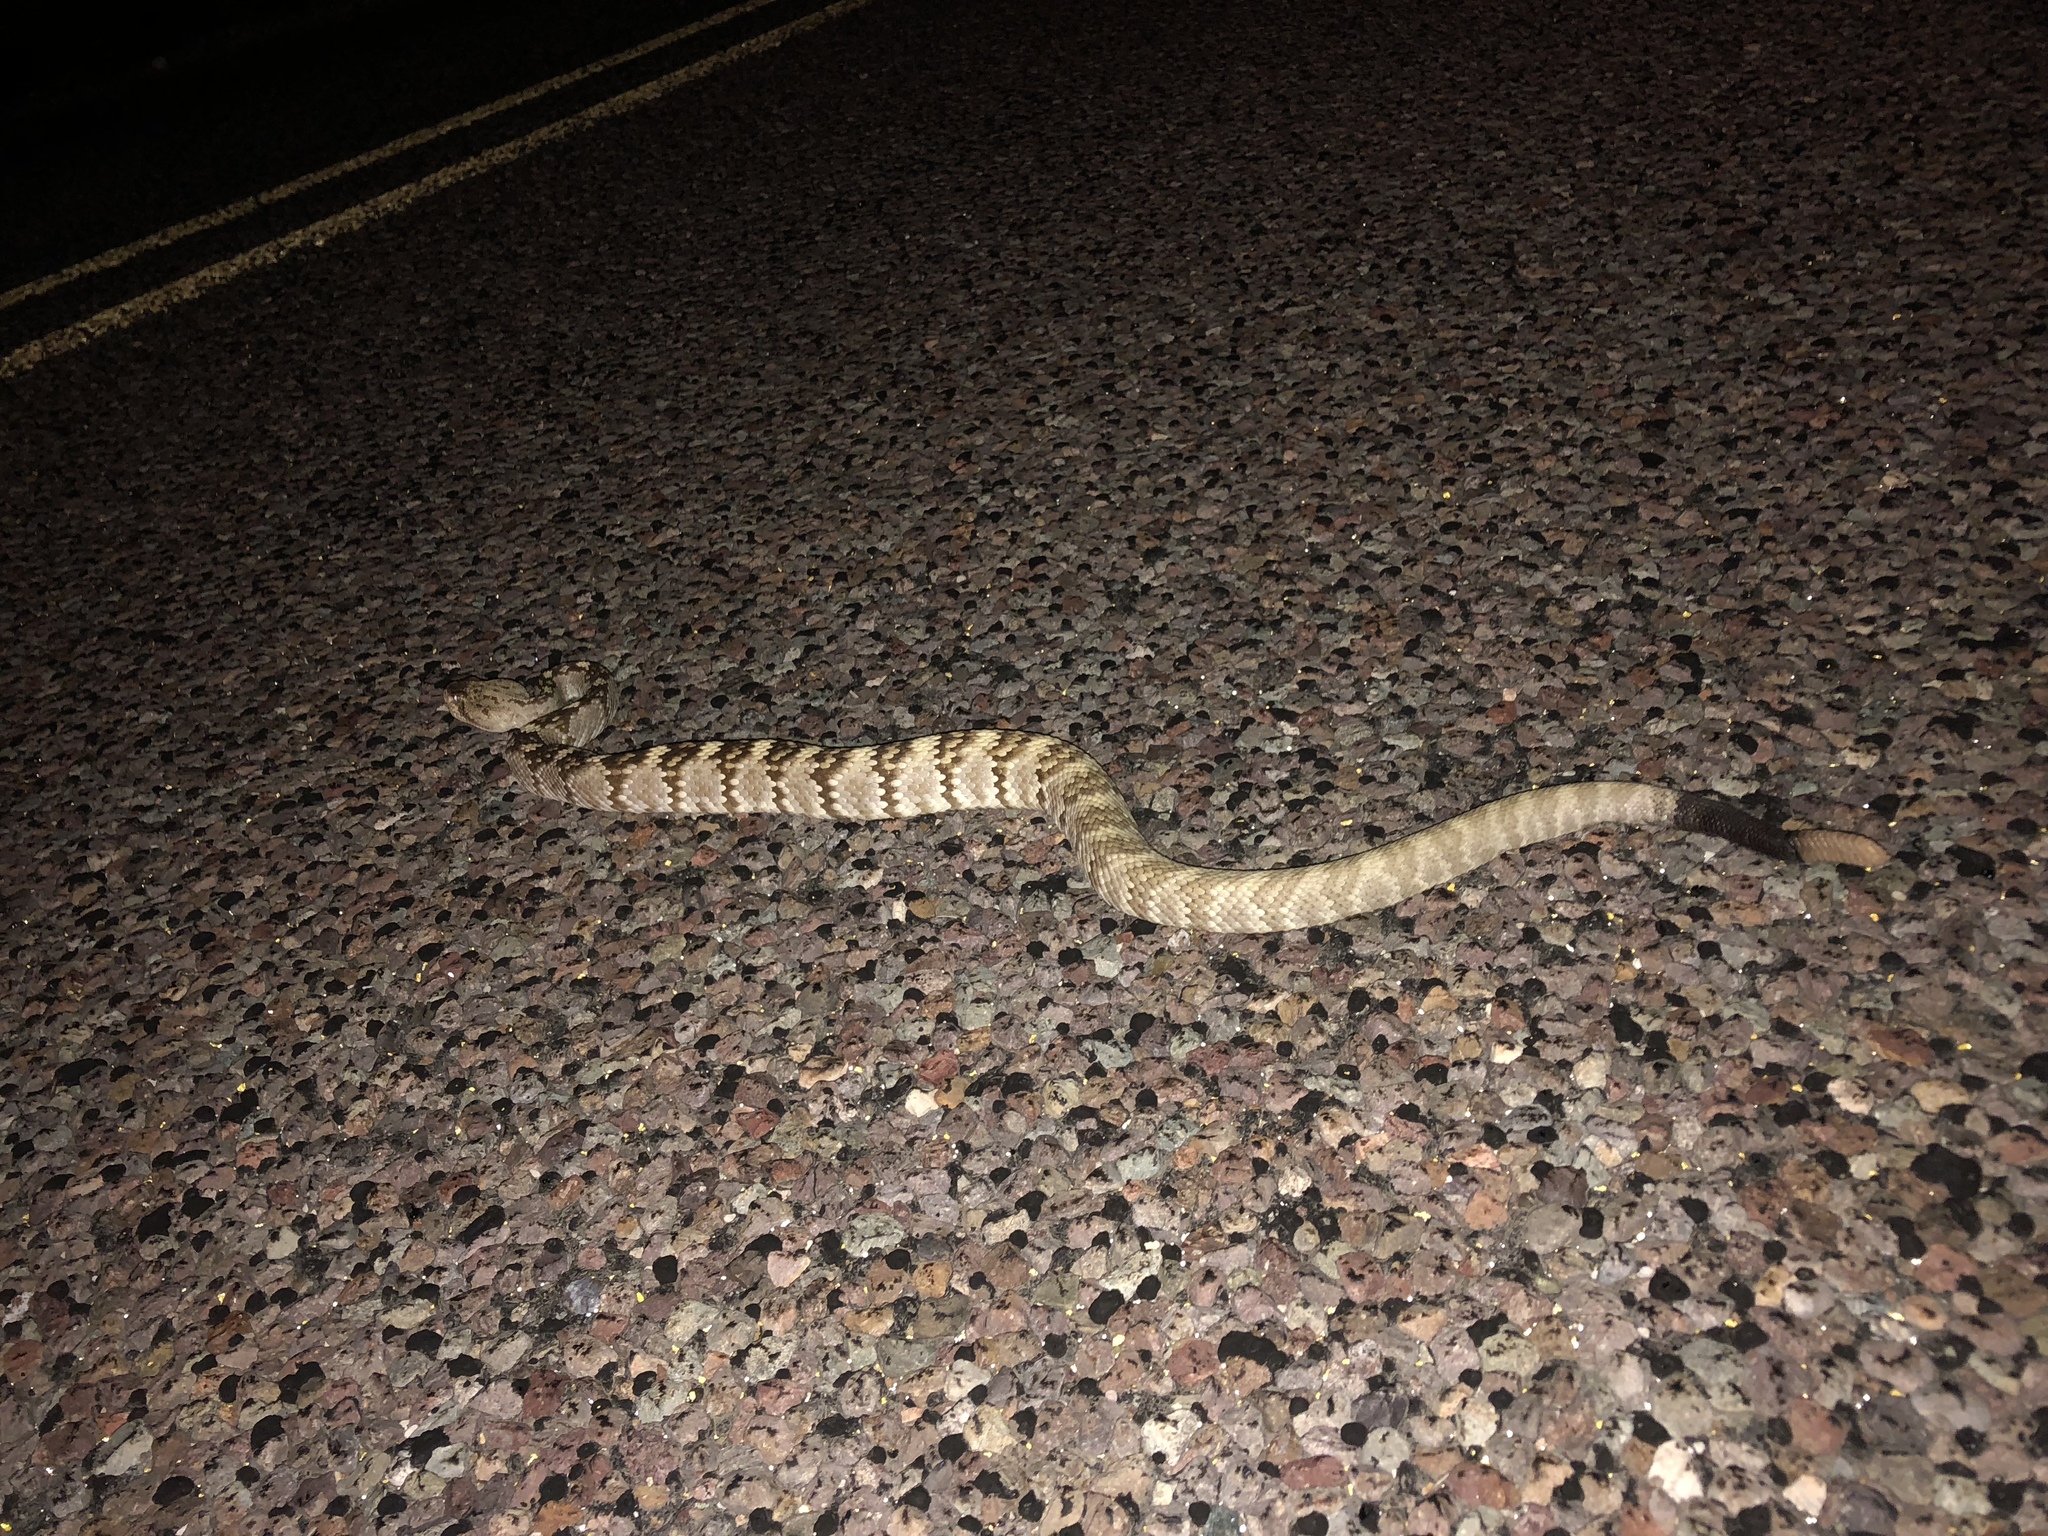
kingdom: Animalia
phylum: Chordata
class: Squamata
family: Viperidae
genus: Crotalus
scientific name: Crotalus ornatus
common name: Black-tailed rattlesnake
